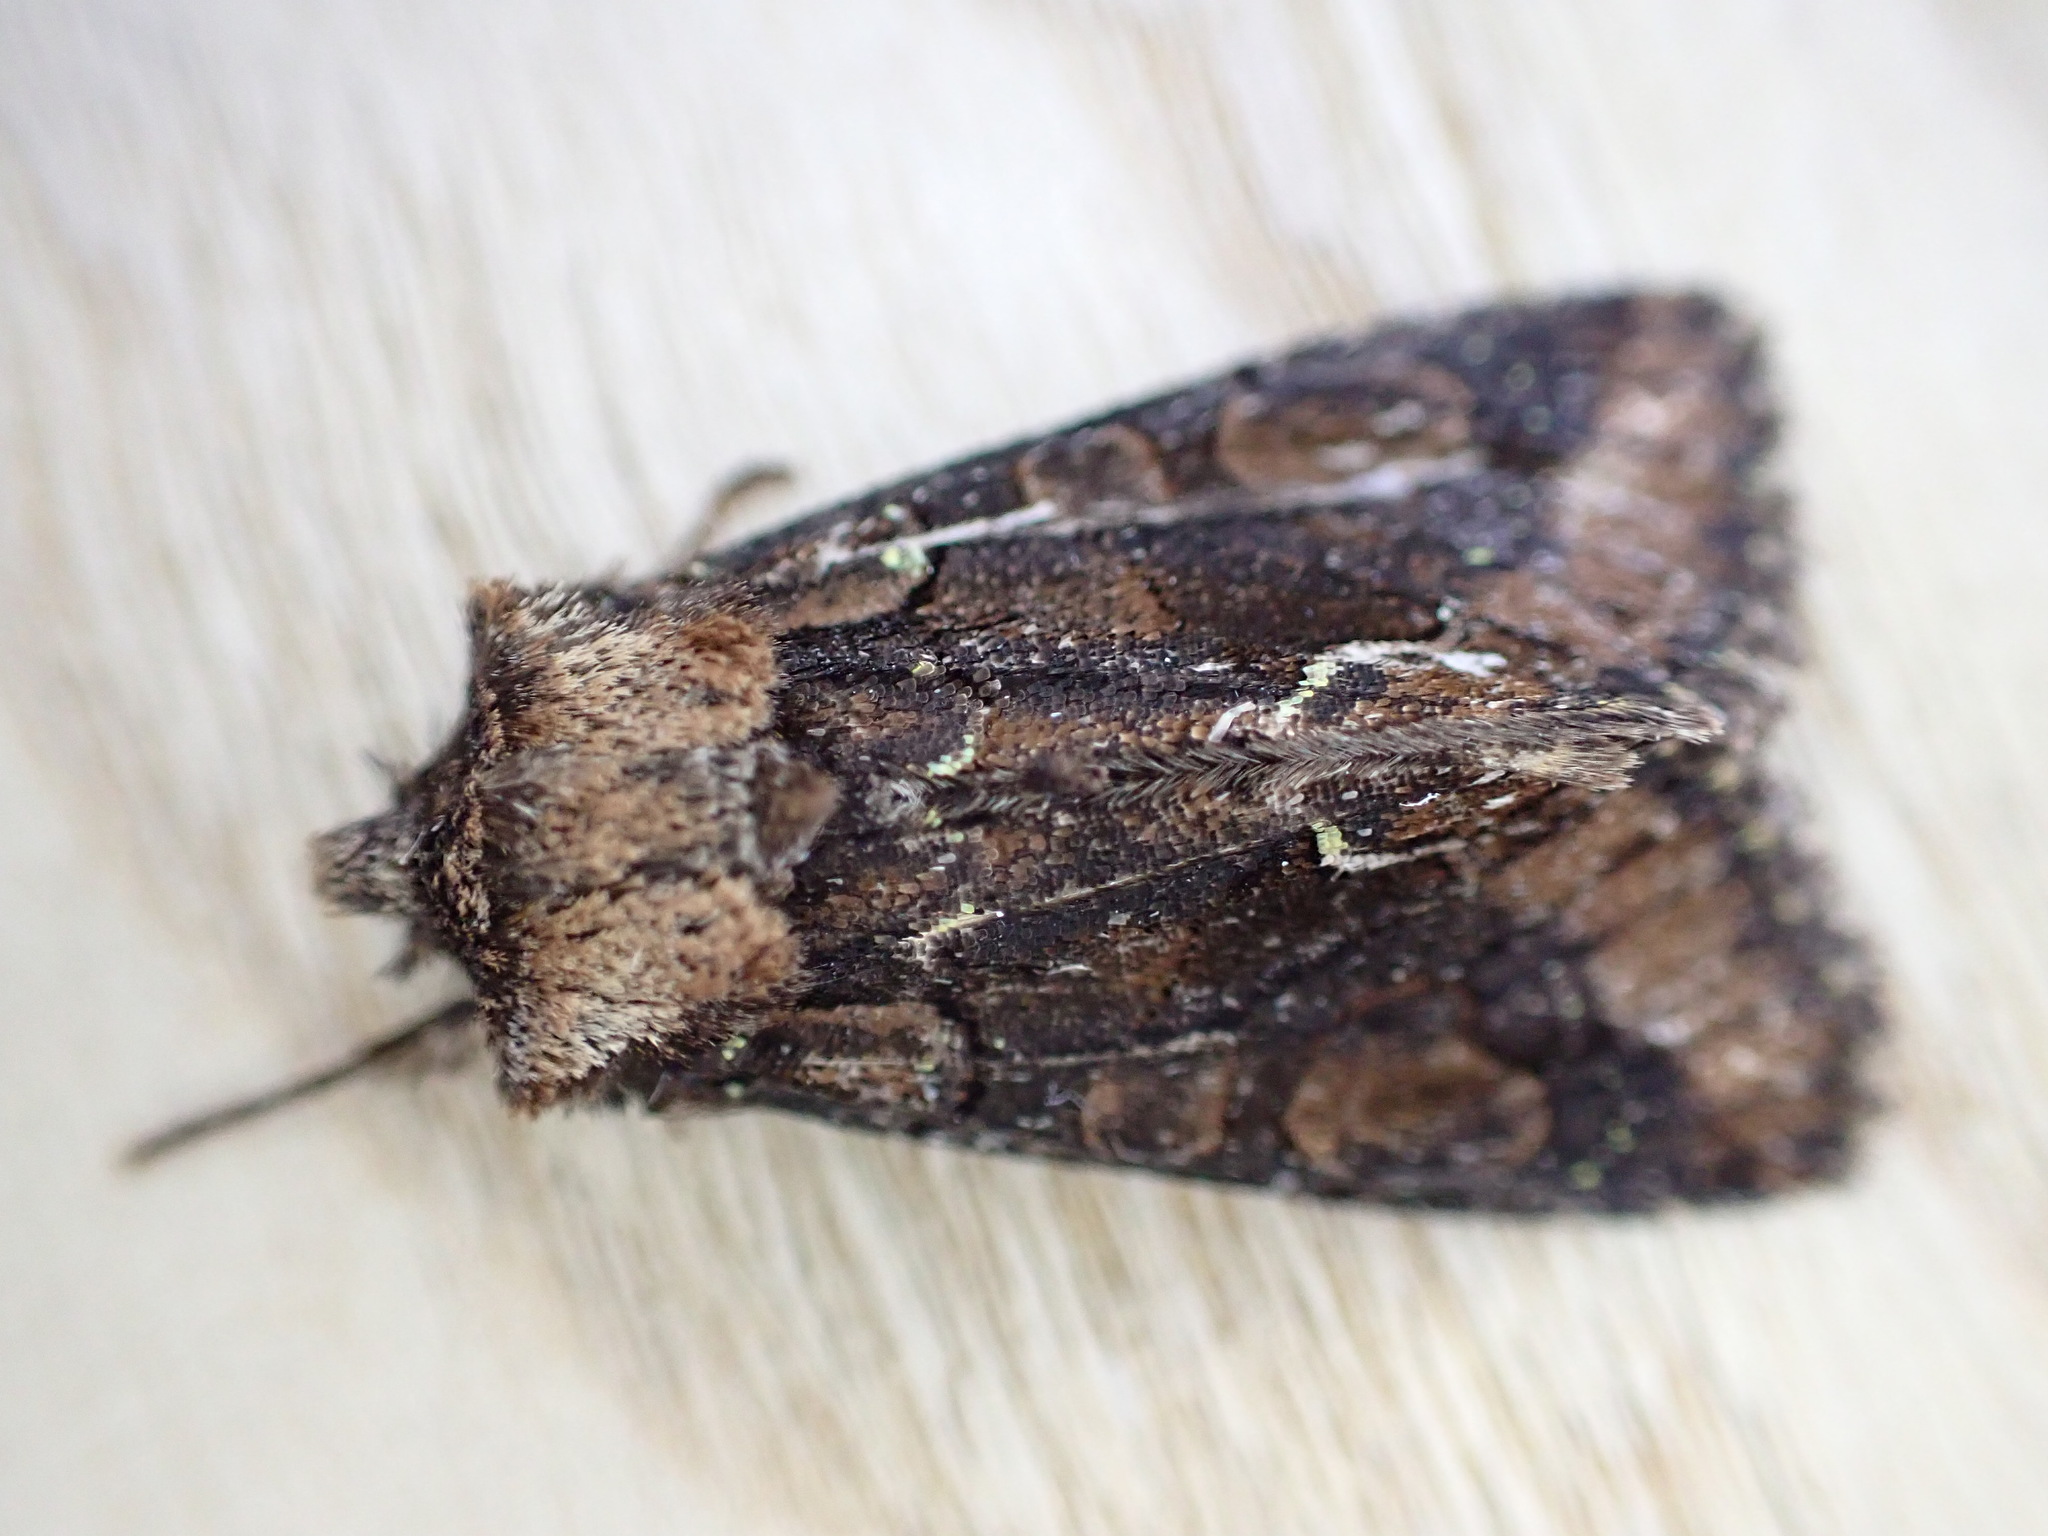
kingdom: Animalia
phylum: Arthropoda
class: Insecta
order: Lepidoptera
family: Noctuidae
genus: Allophyes
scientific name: Allophyes oxyacanthae
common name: Green-brindled crescent
